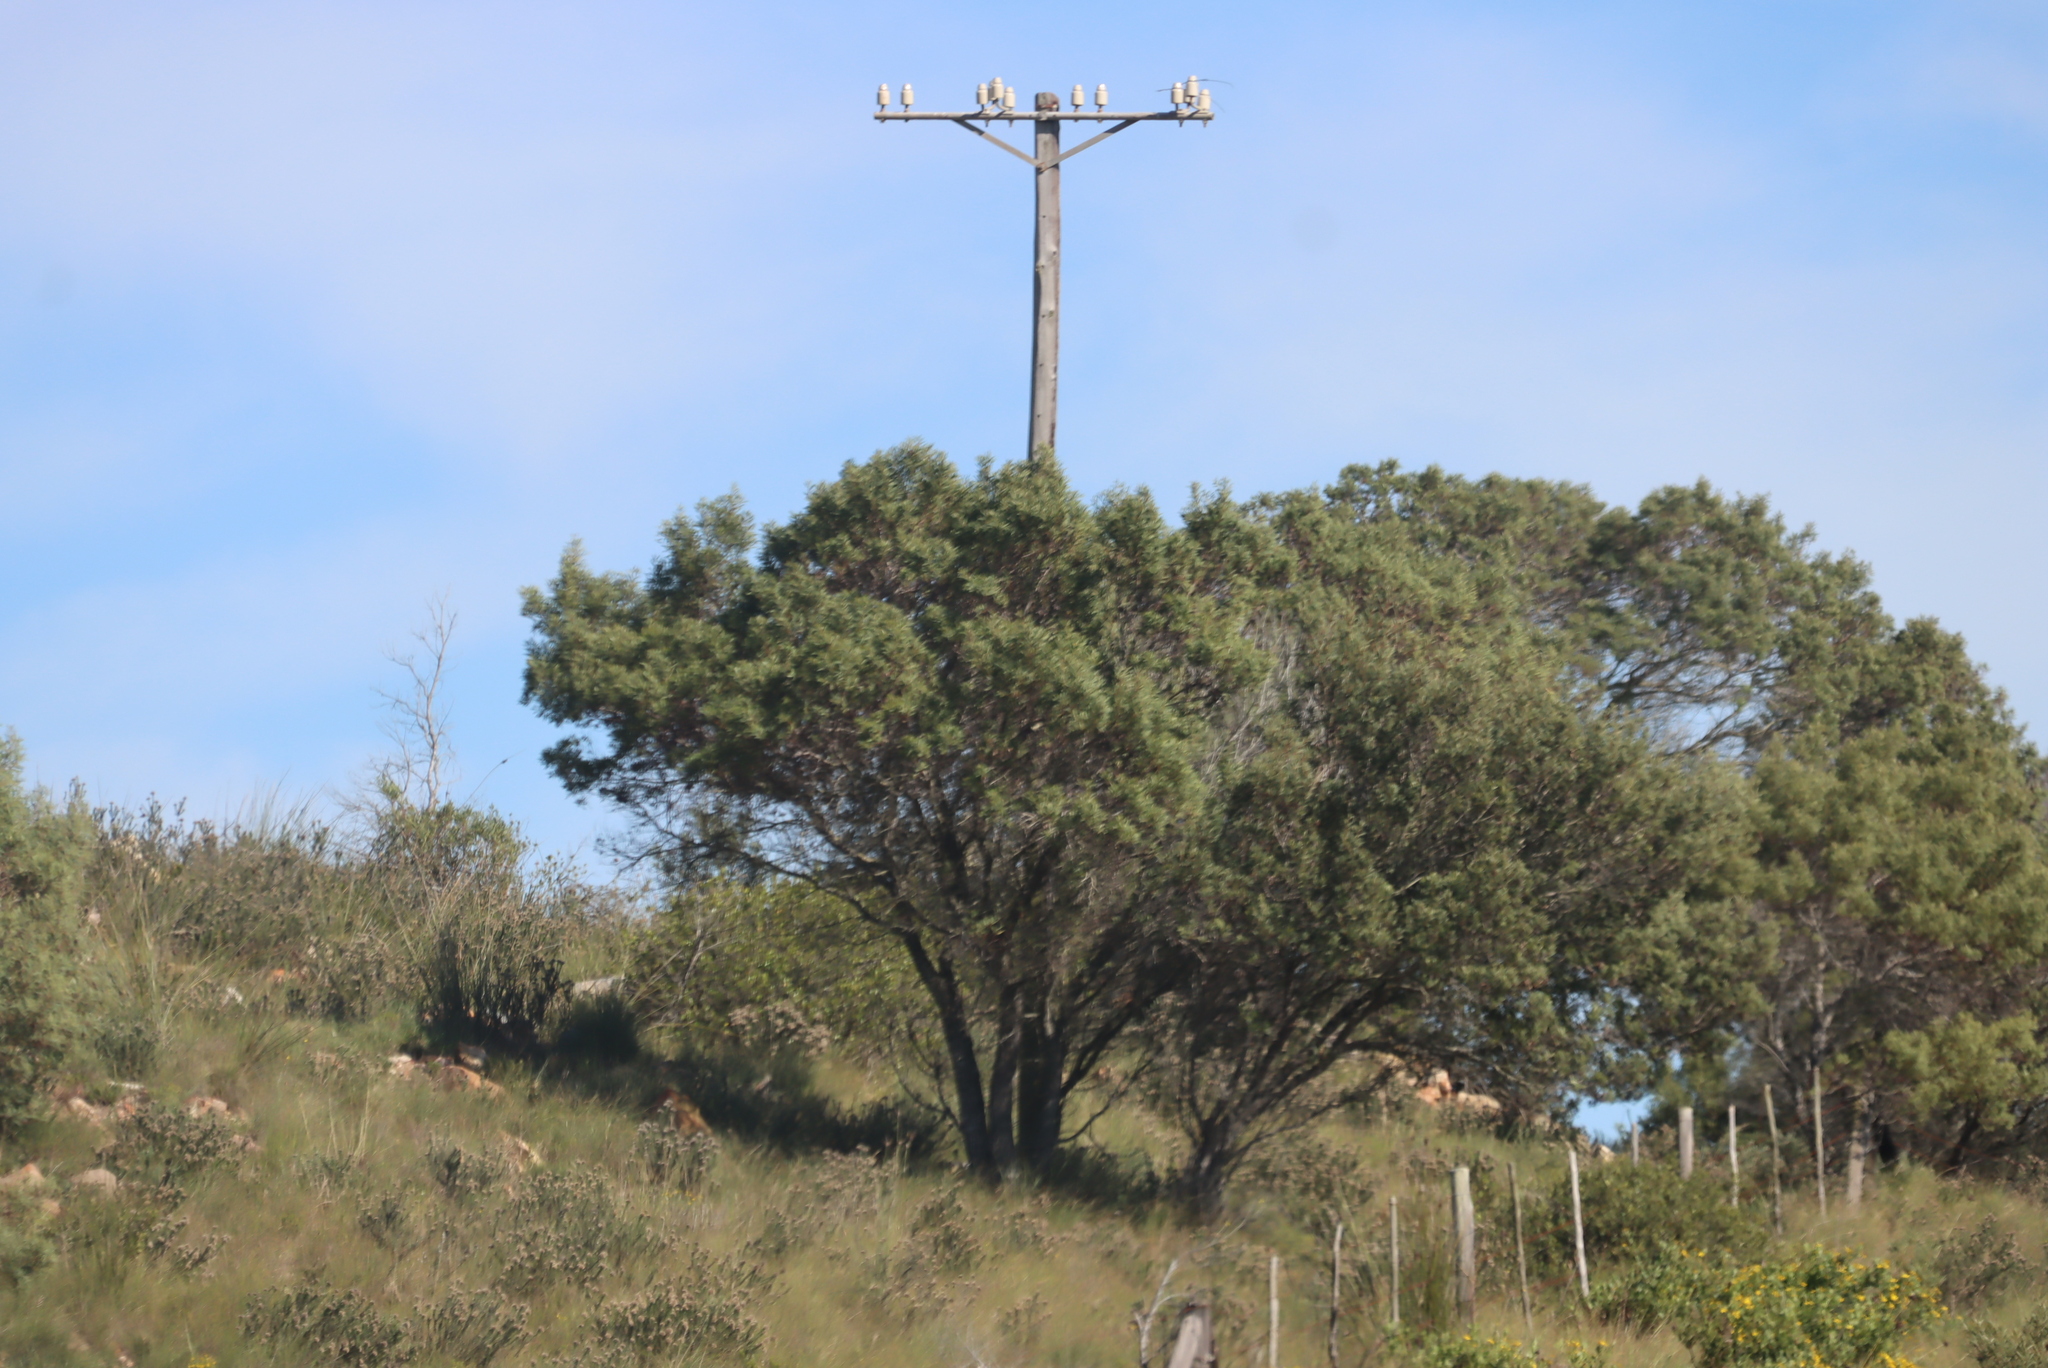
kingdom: Plantae
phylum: Tracheophyta
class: Magnoliopsida
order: Fabales
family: Fabaceae
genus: Acacia
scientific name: Acacia cyclops
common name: Coastal wattle
